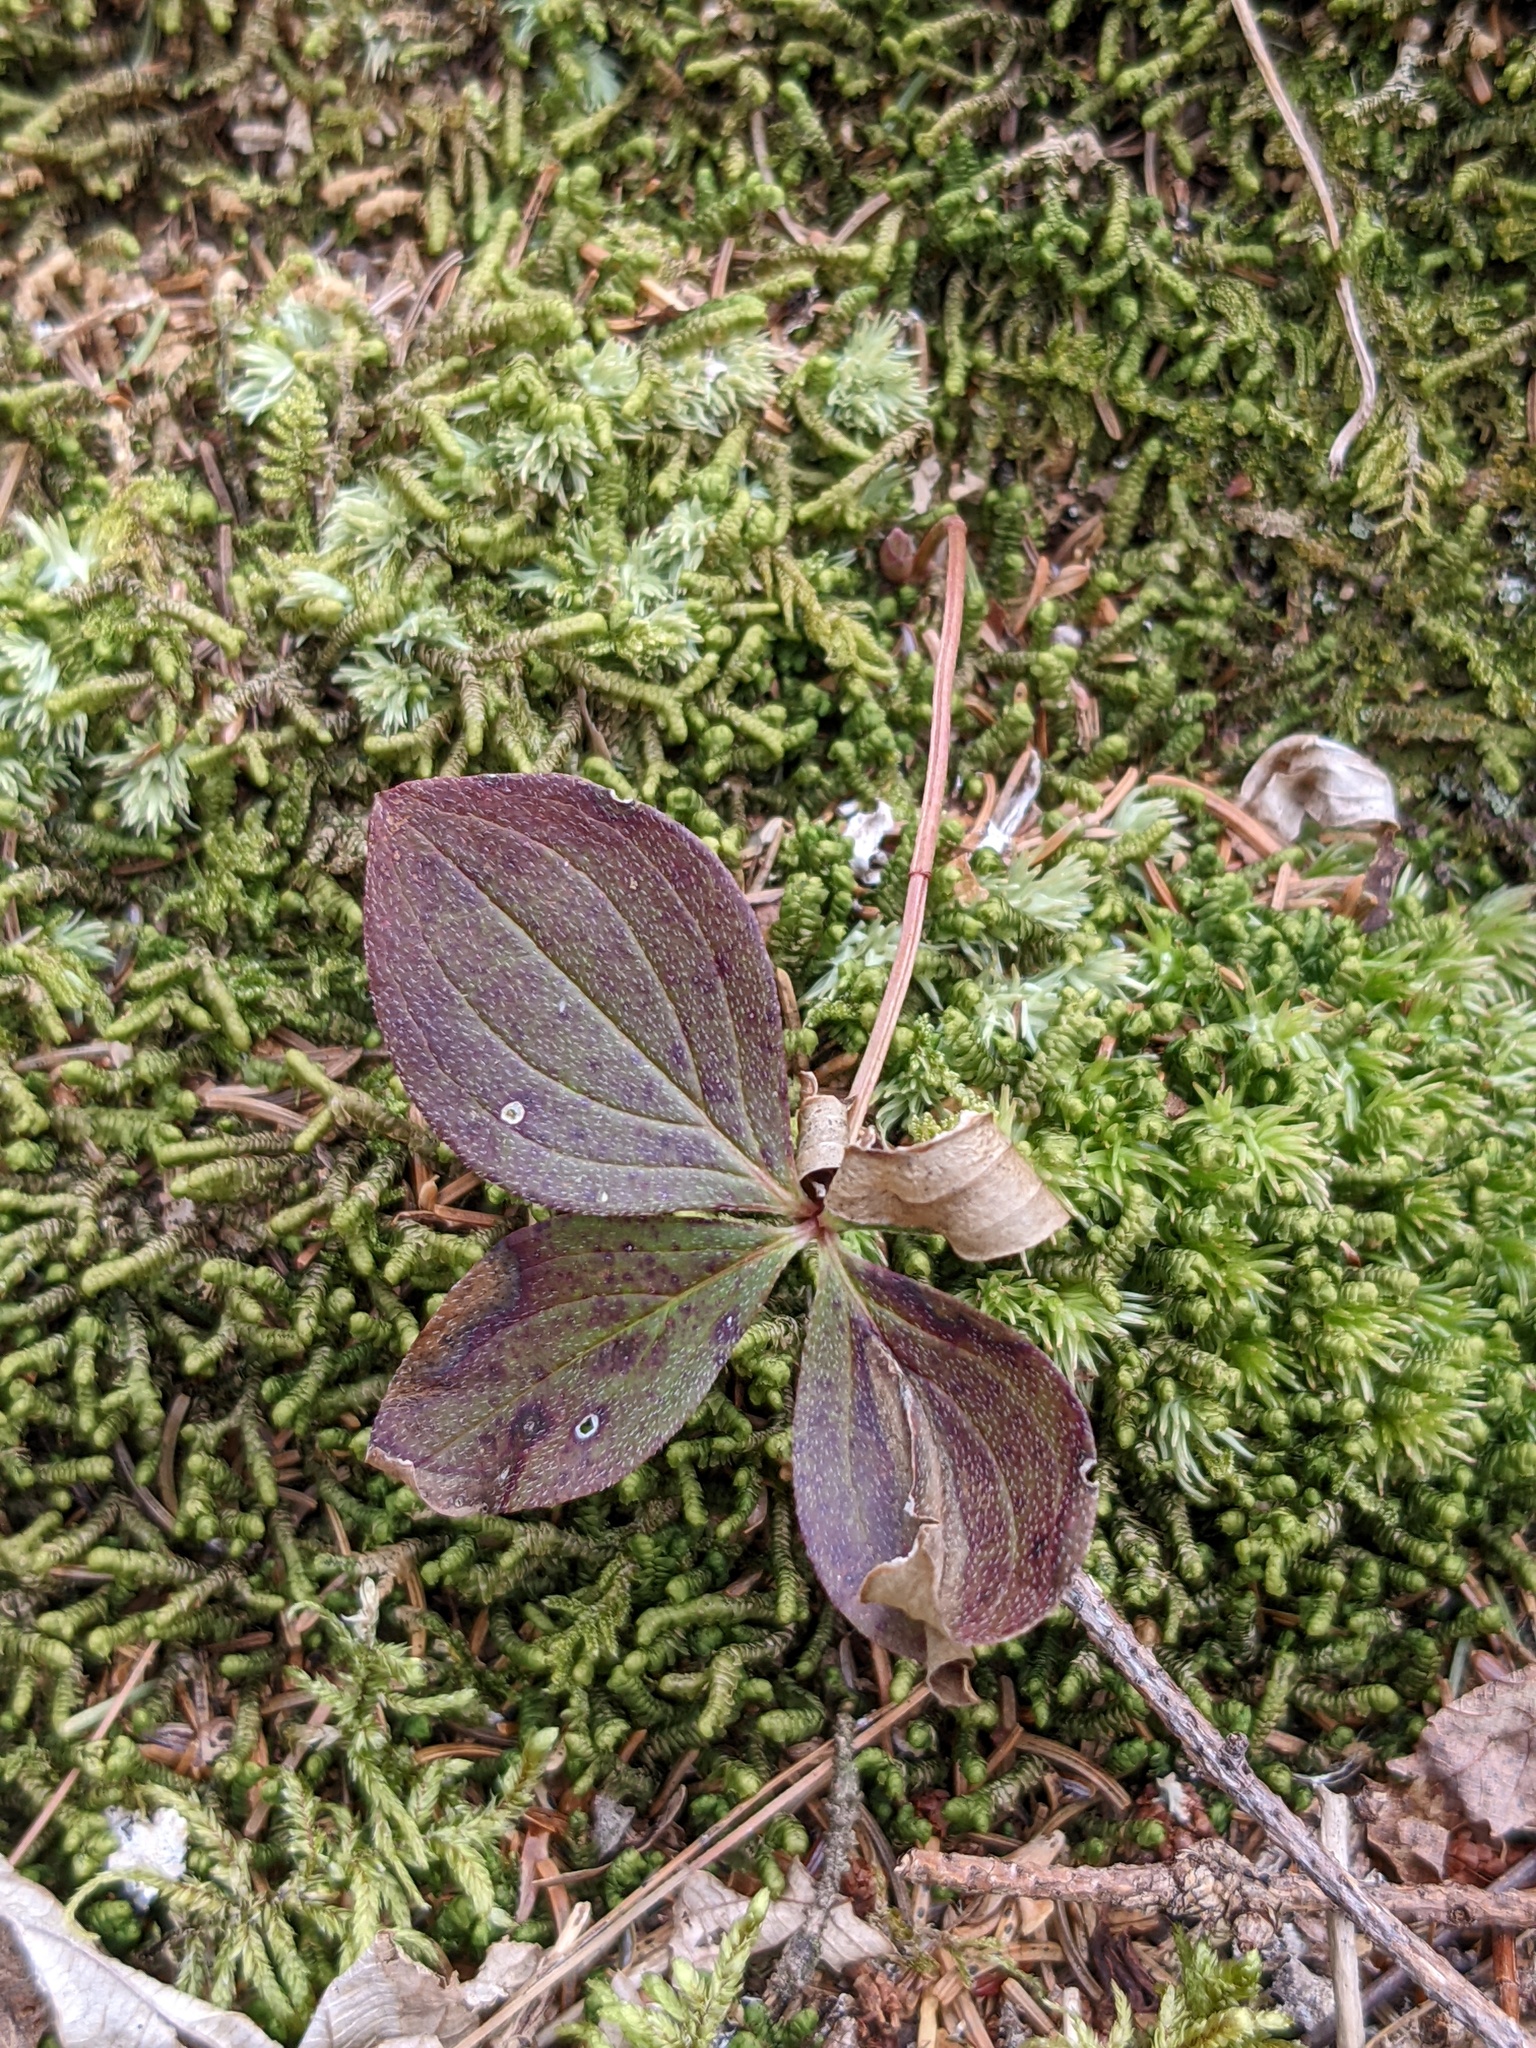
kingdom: Plantae
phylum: Tracheophyta
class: Magnoliopsida
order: Cornales
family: Cornaceae
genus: Cornus
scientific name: Cornus canadensis
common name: Creeping dogwood
